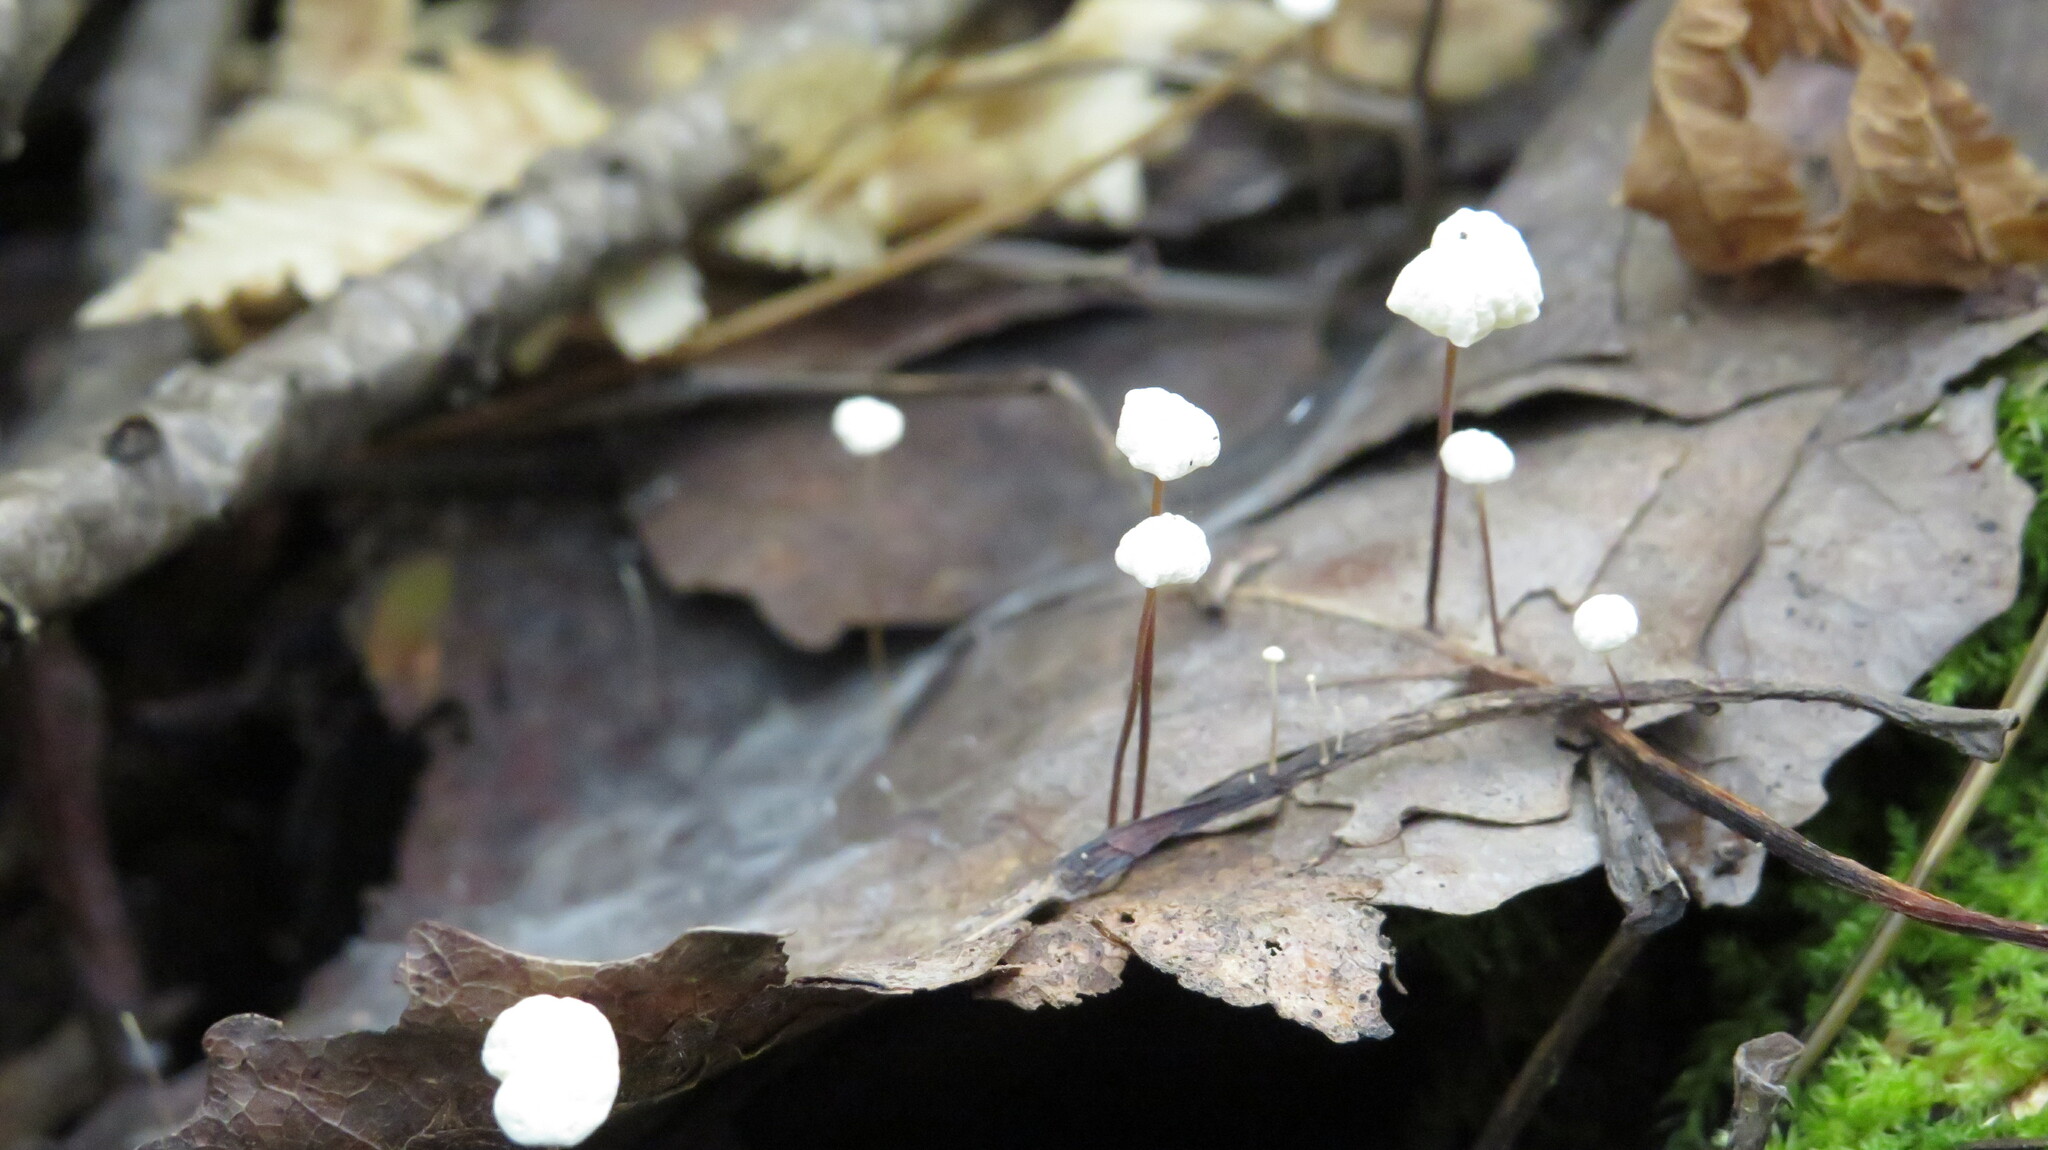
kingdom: Fungi
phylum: Basidiomycota
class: Agaricomycetes
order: Agaricales
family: Omphalotaceae
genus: Gymnopus
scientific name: Gymnopus androsaceus
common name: Horse-hair fungus
